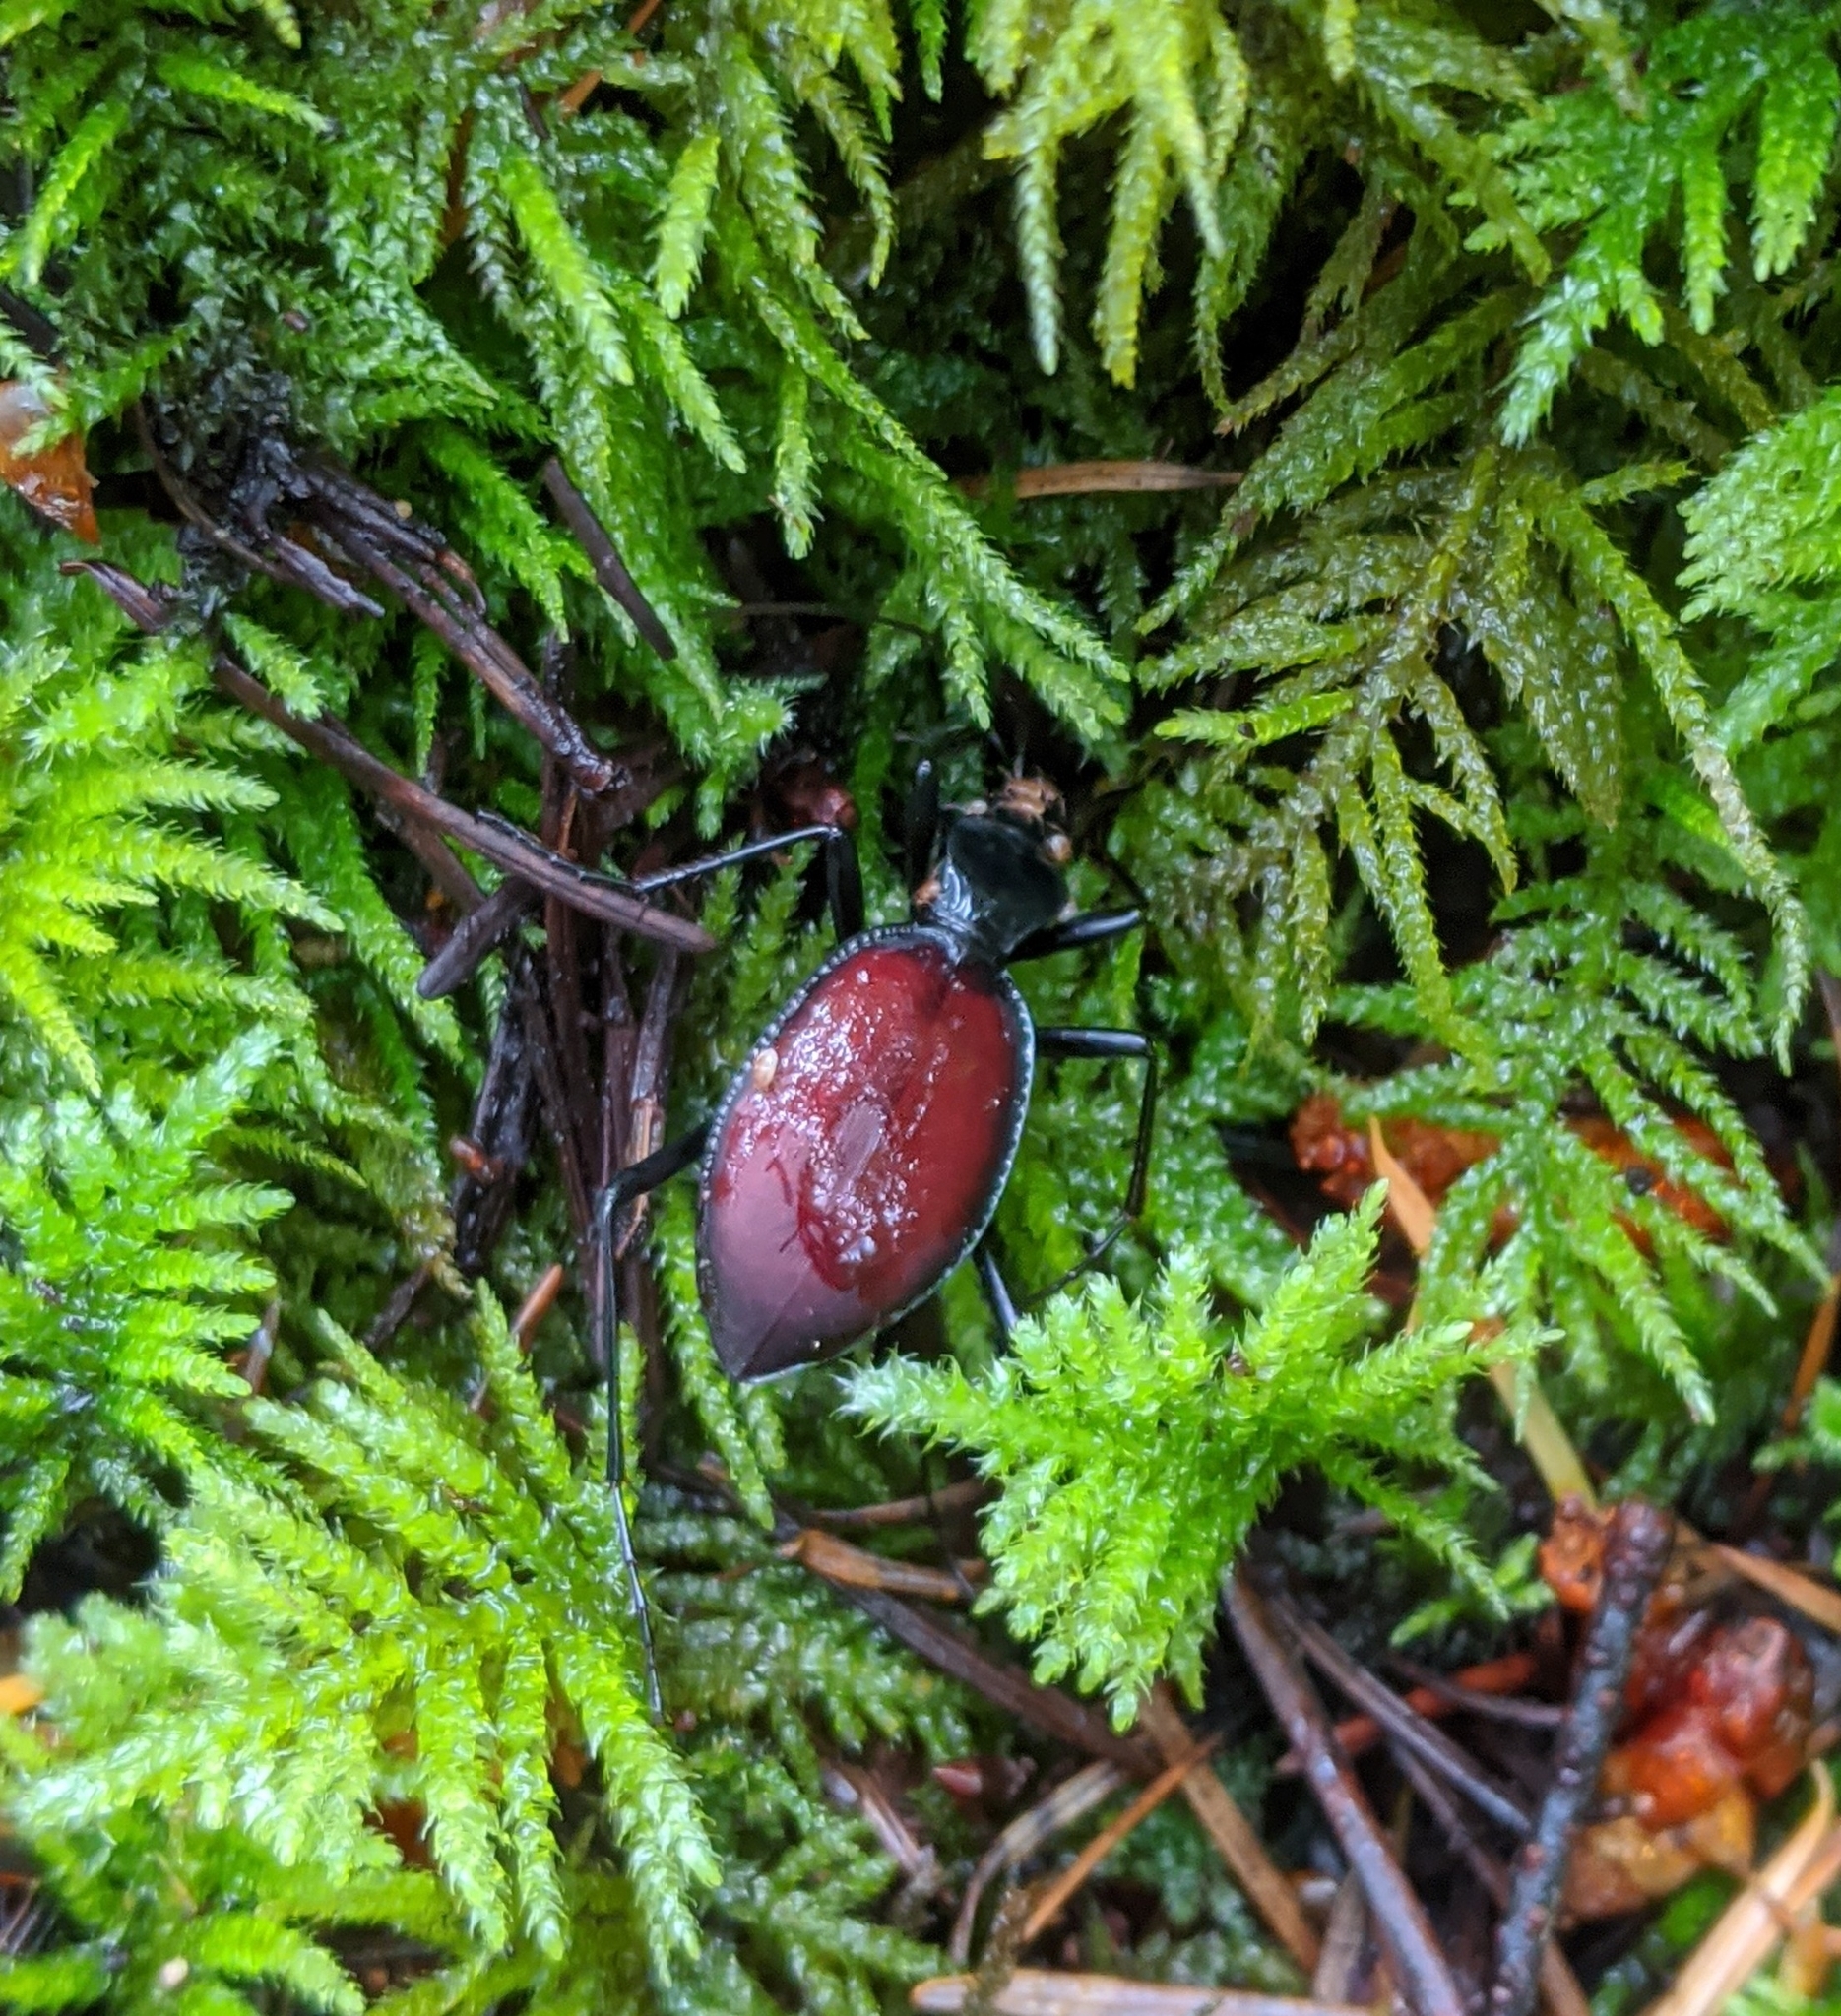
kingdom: Animalia
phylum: Arthropoda
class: Insecta
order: Coleoptera
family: Carabidae
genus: Scaphinotus
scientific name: Scaphinotus angusticollis
